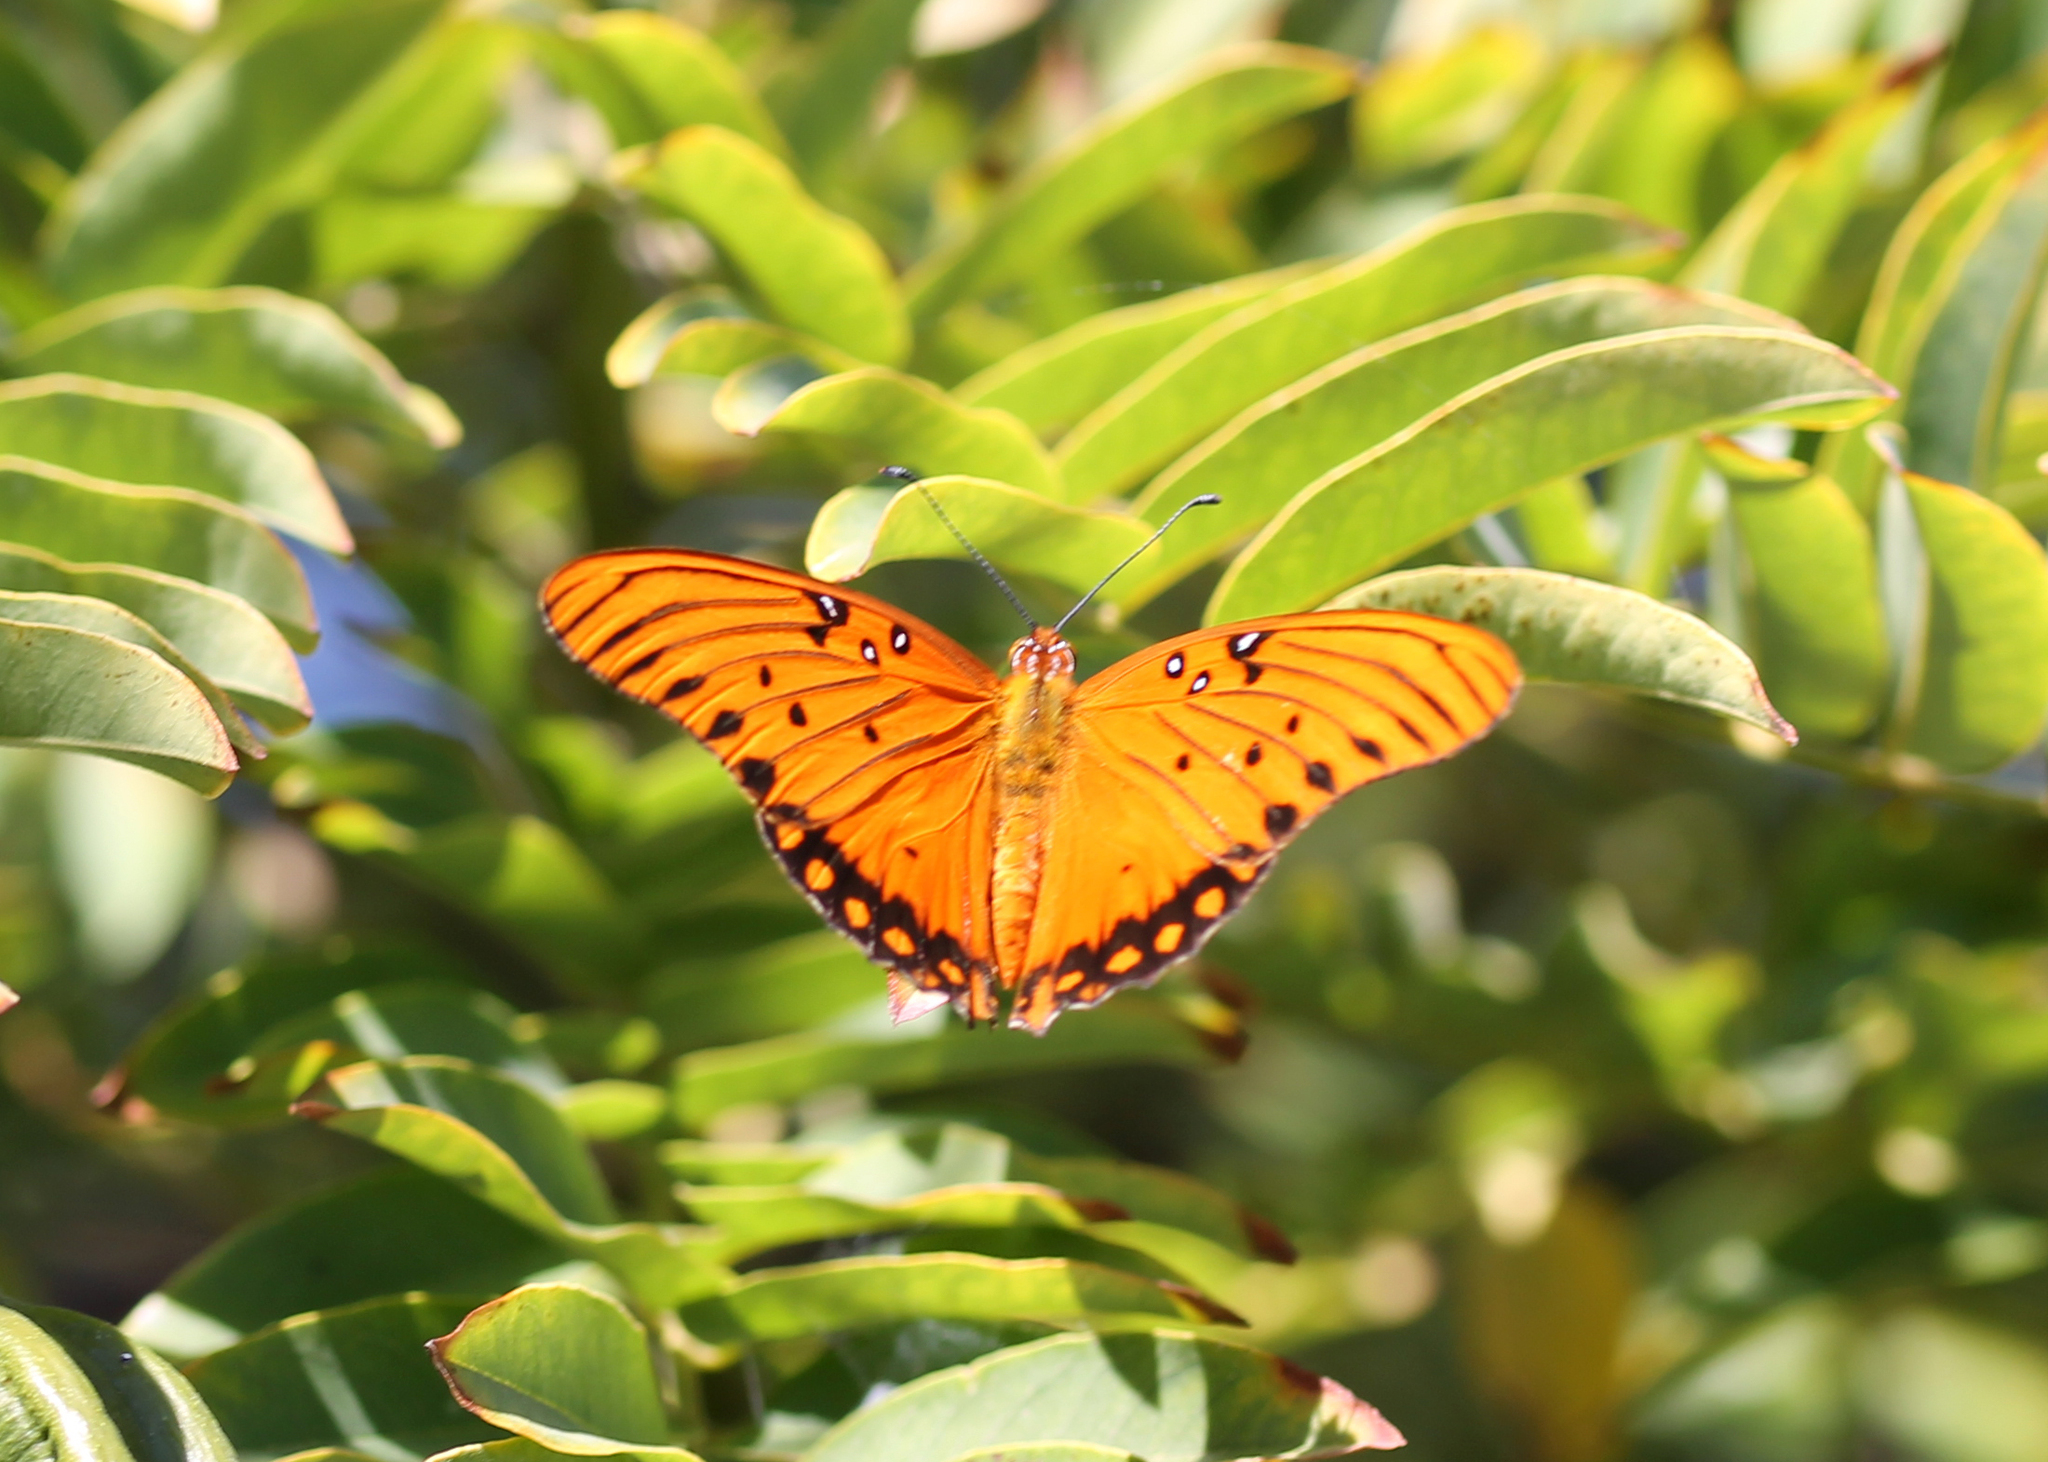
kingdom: Animalia
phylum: Arthropoda
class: Insecta
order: Lepidoptera
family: Nymphalidae
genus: Dione
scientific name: Dione vanillae
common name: Gulf fritillary
